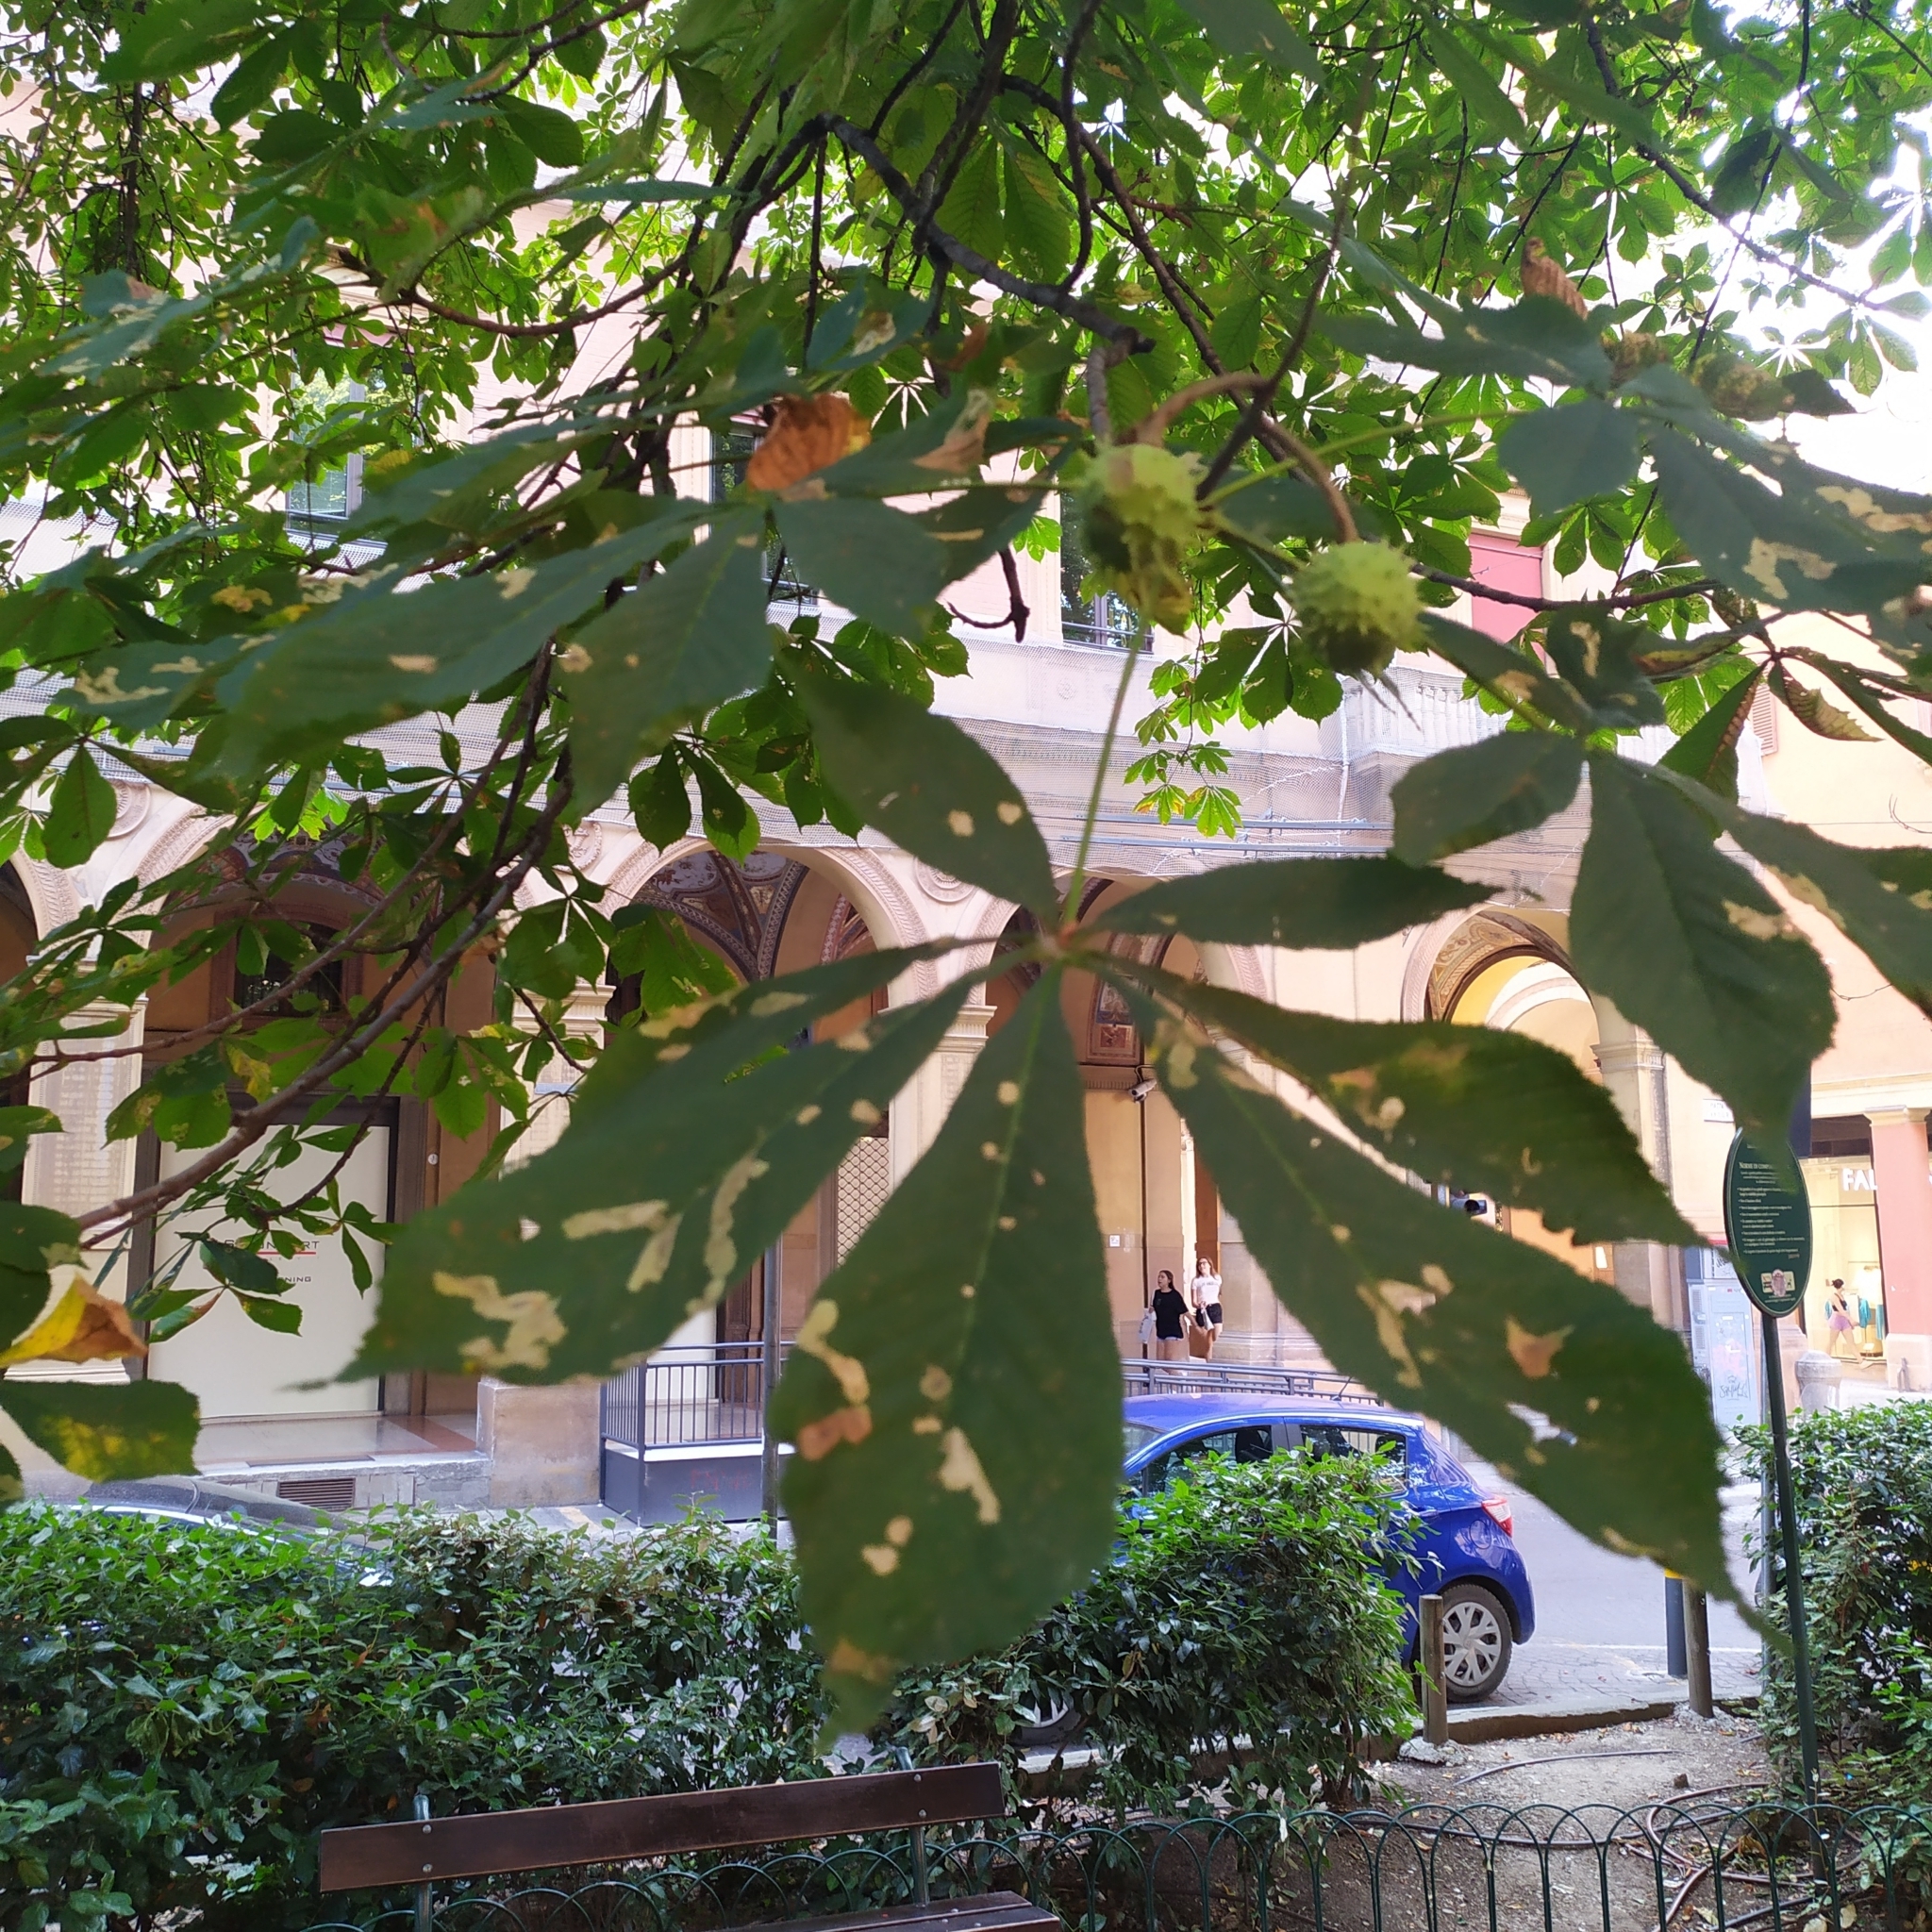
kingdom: Animalia
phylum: Arthropoda
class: Insecta
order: Lepidoptera
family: Gracillariidae
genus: Cameraria
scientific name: Cameraria ohridella
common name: Horse-chestnut leaf-miner
